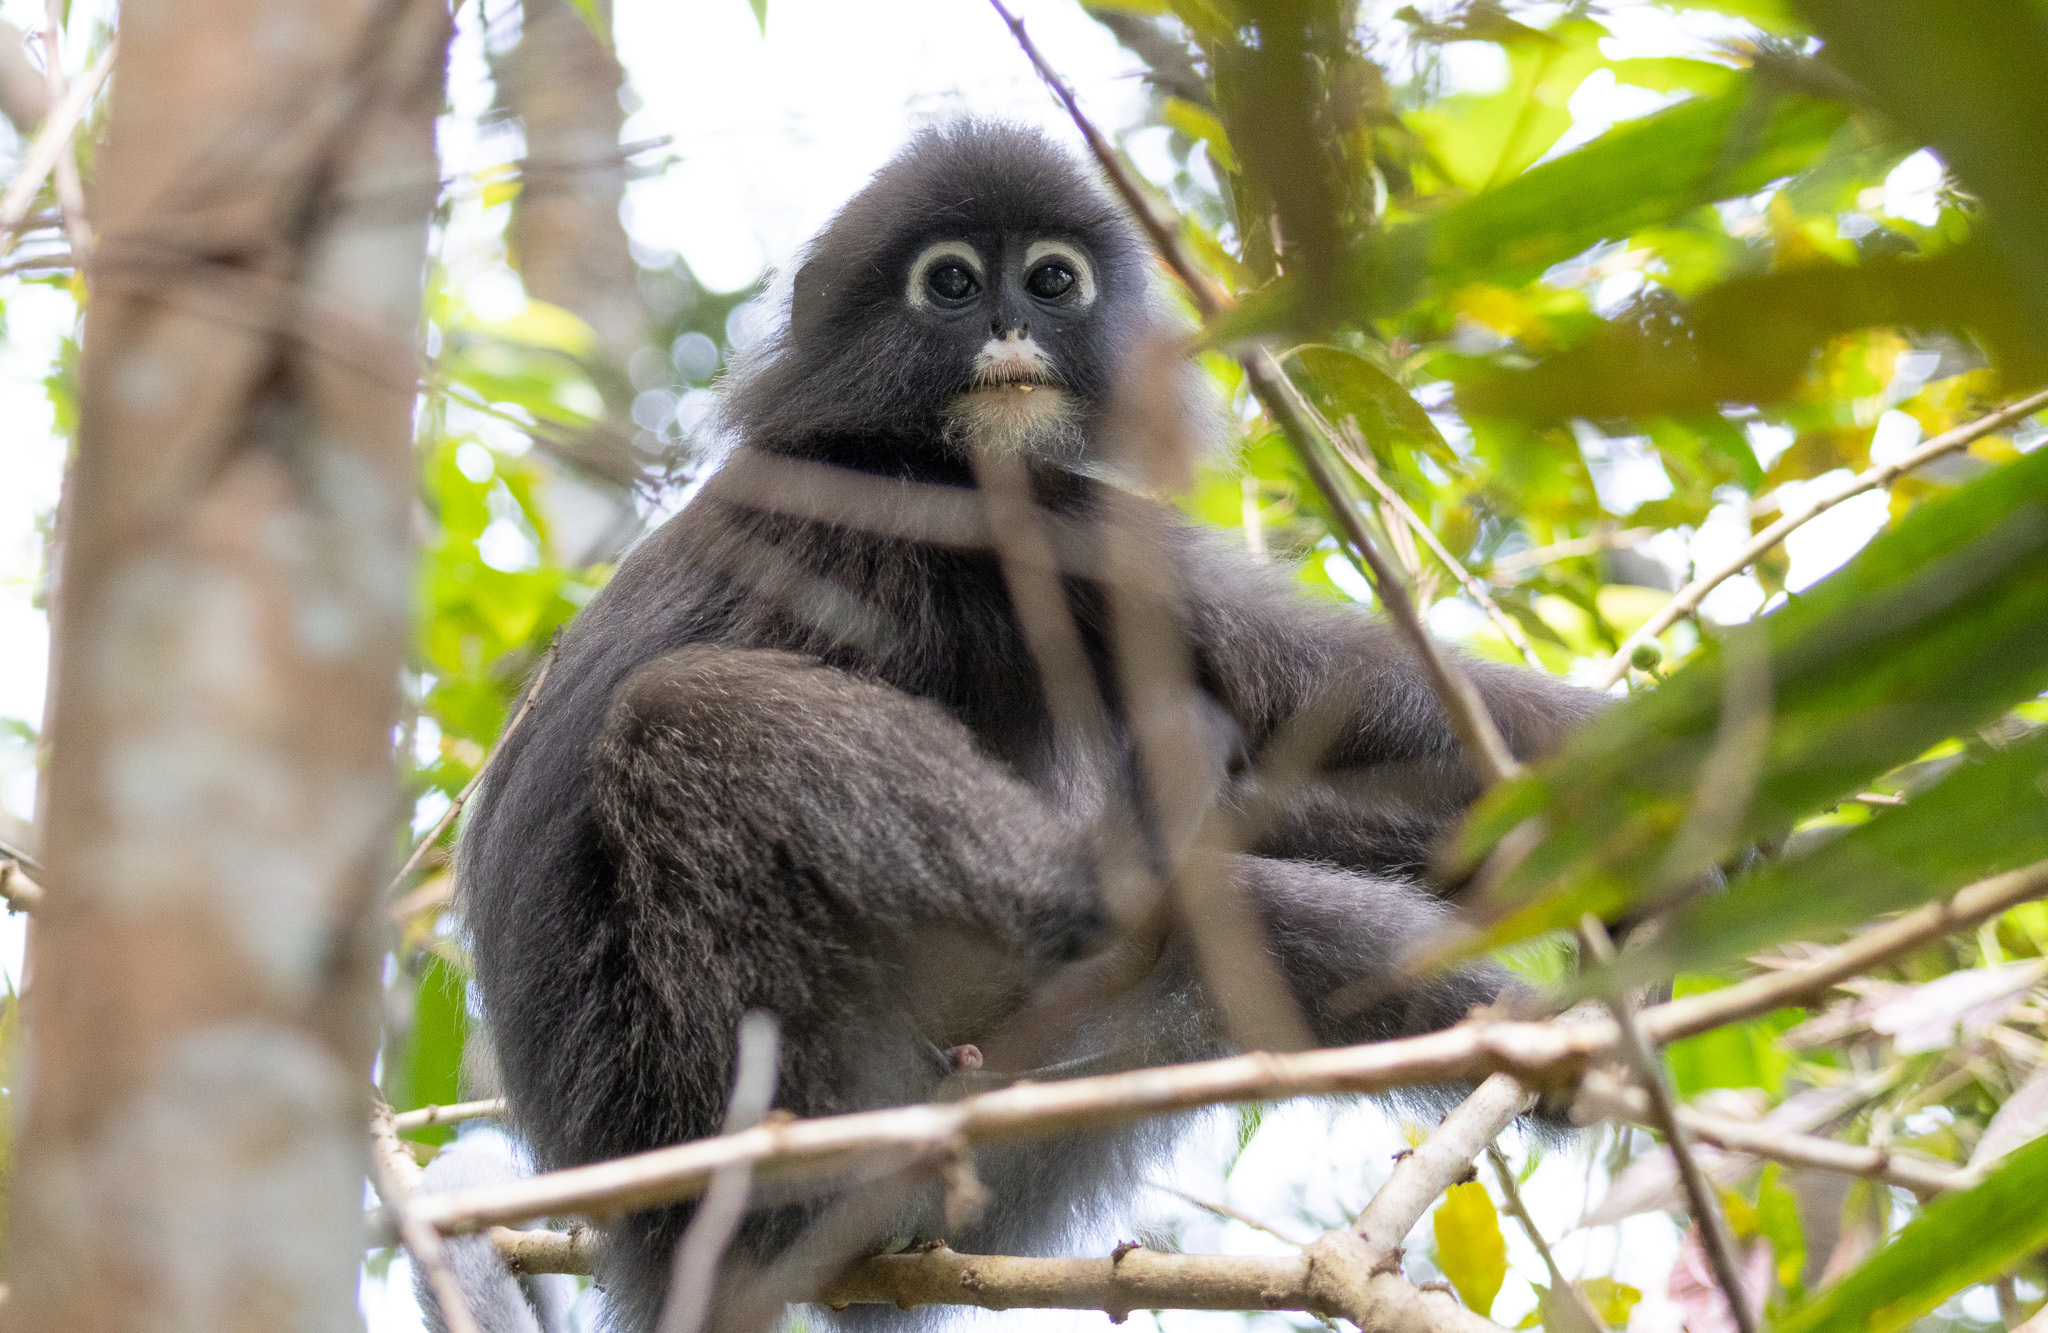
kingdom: Animalia
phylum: Chordata
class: Mammalia
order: Primates
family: Cercopithecidae
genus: Trachypithecus
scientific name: Trachypithecus obscurus
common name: Dusky leaf-monkey
